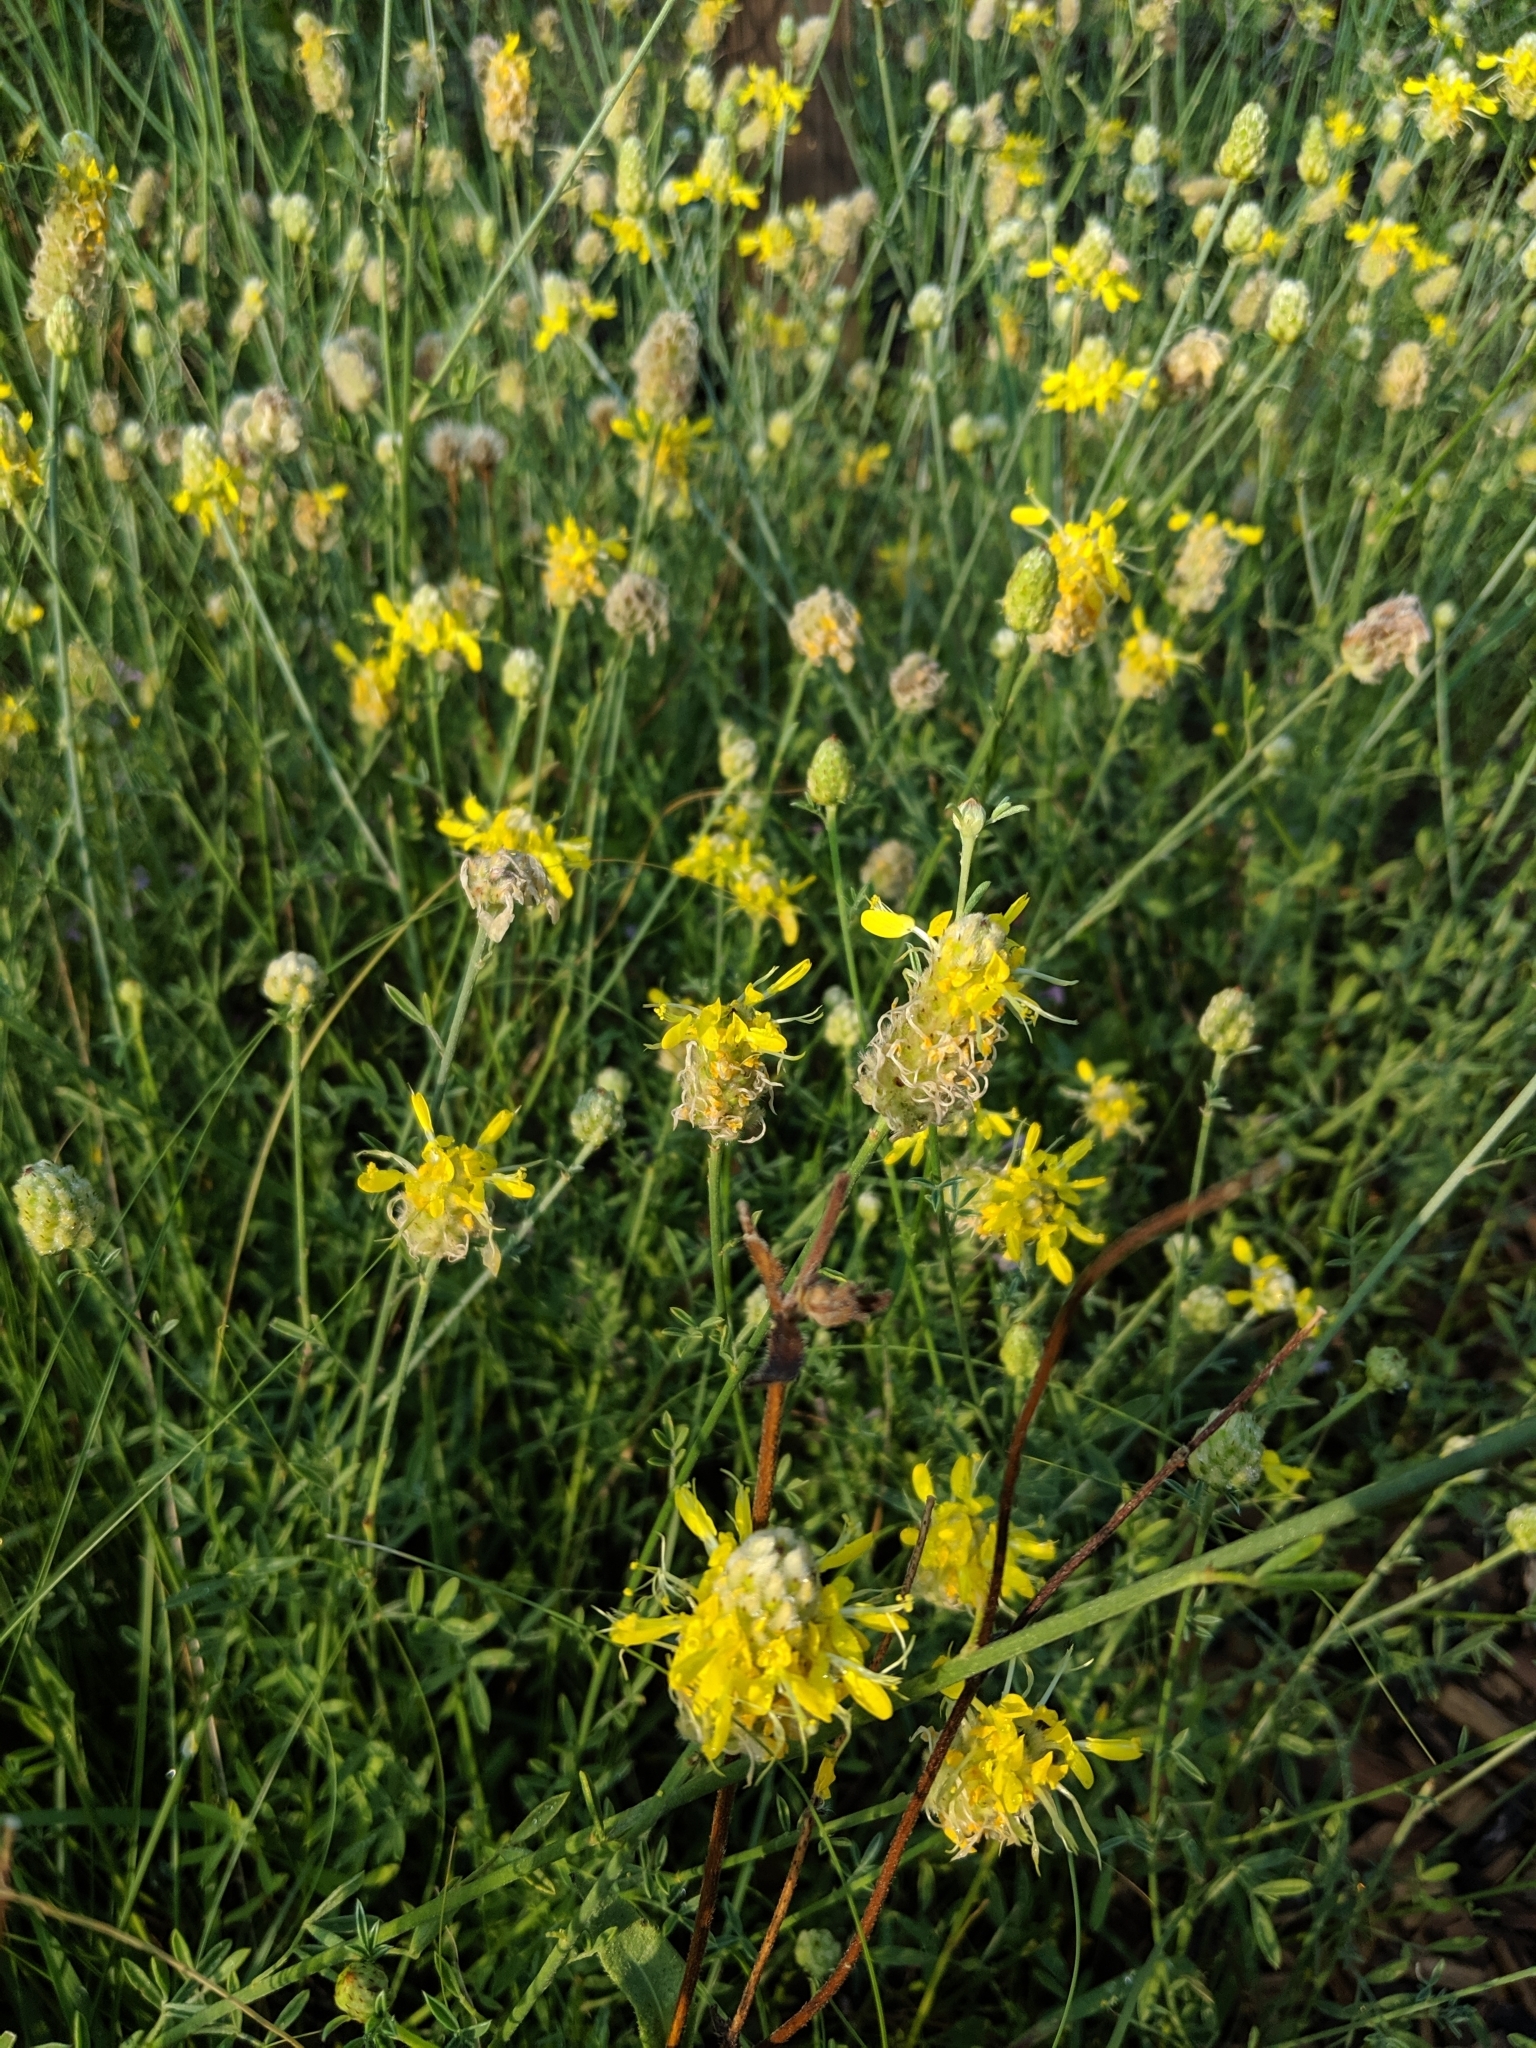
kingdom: Plantae
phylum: Tracheophyta
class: Magnoliopsida
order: Fabales
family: Fabaceae
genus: Dalea
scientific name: Dalea aurea
